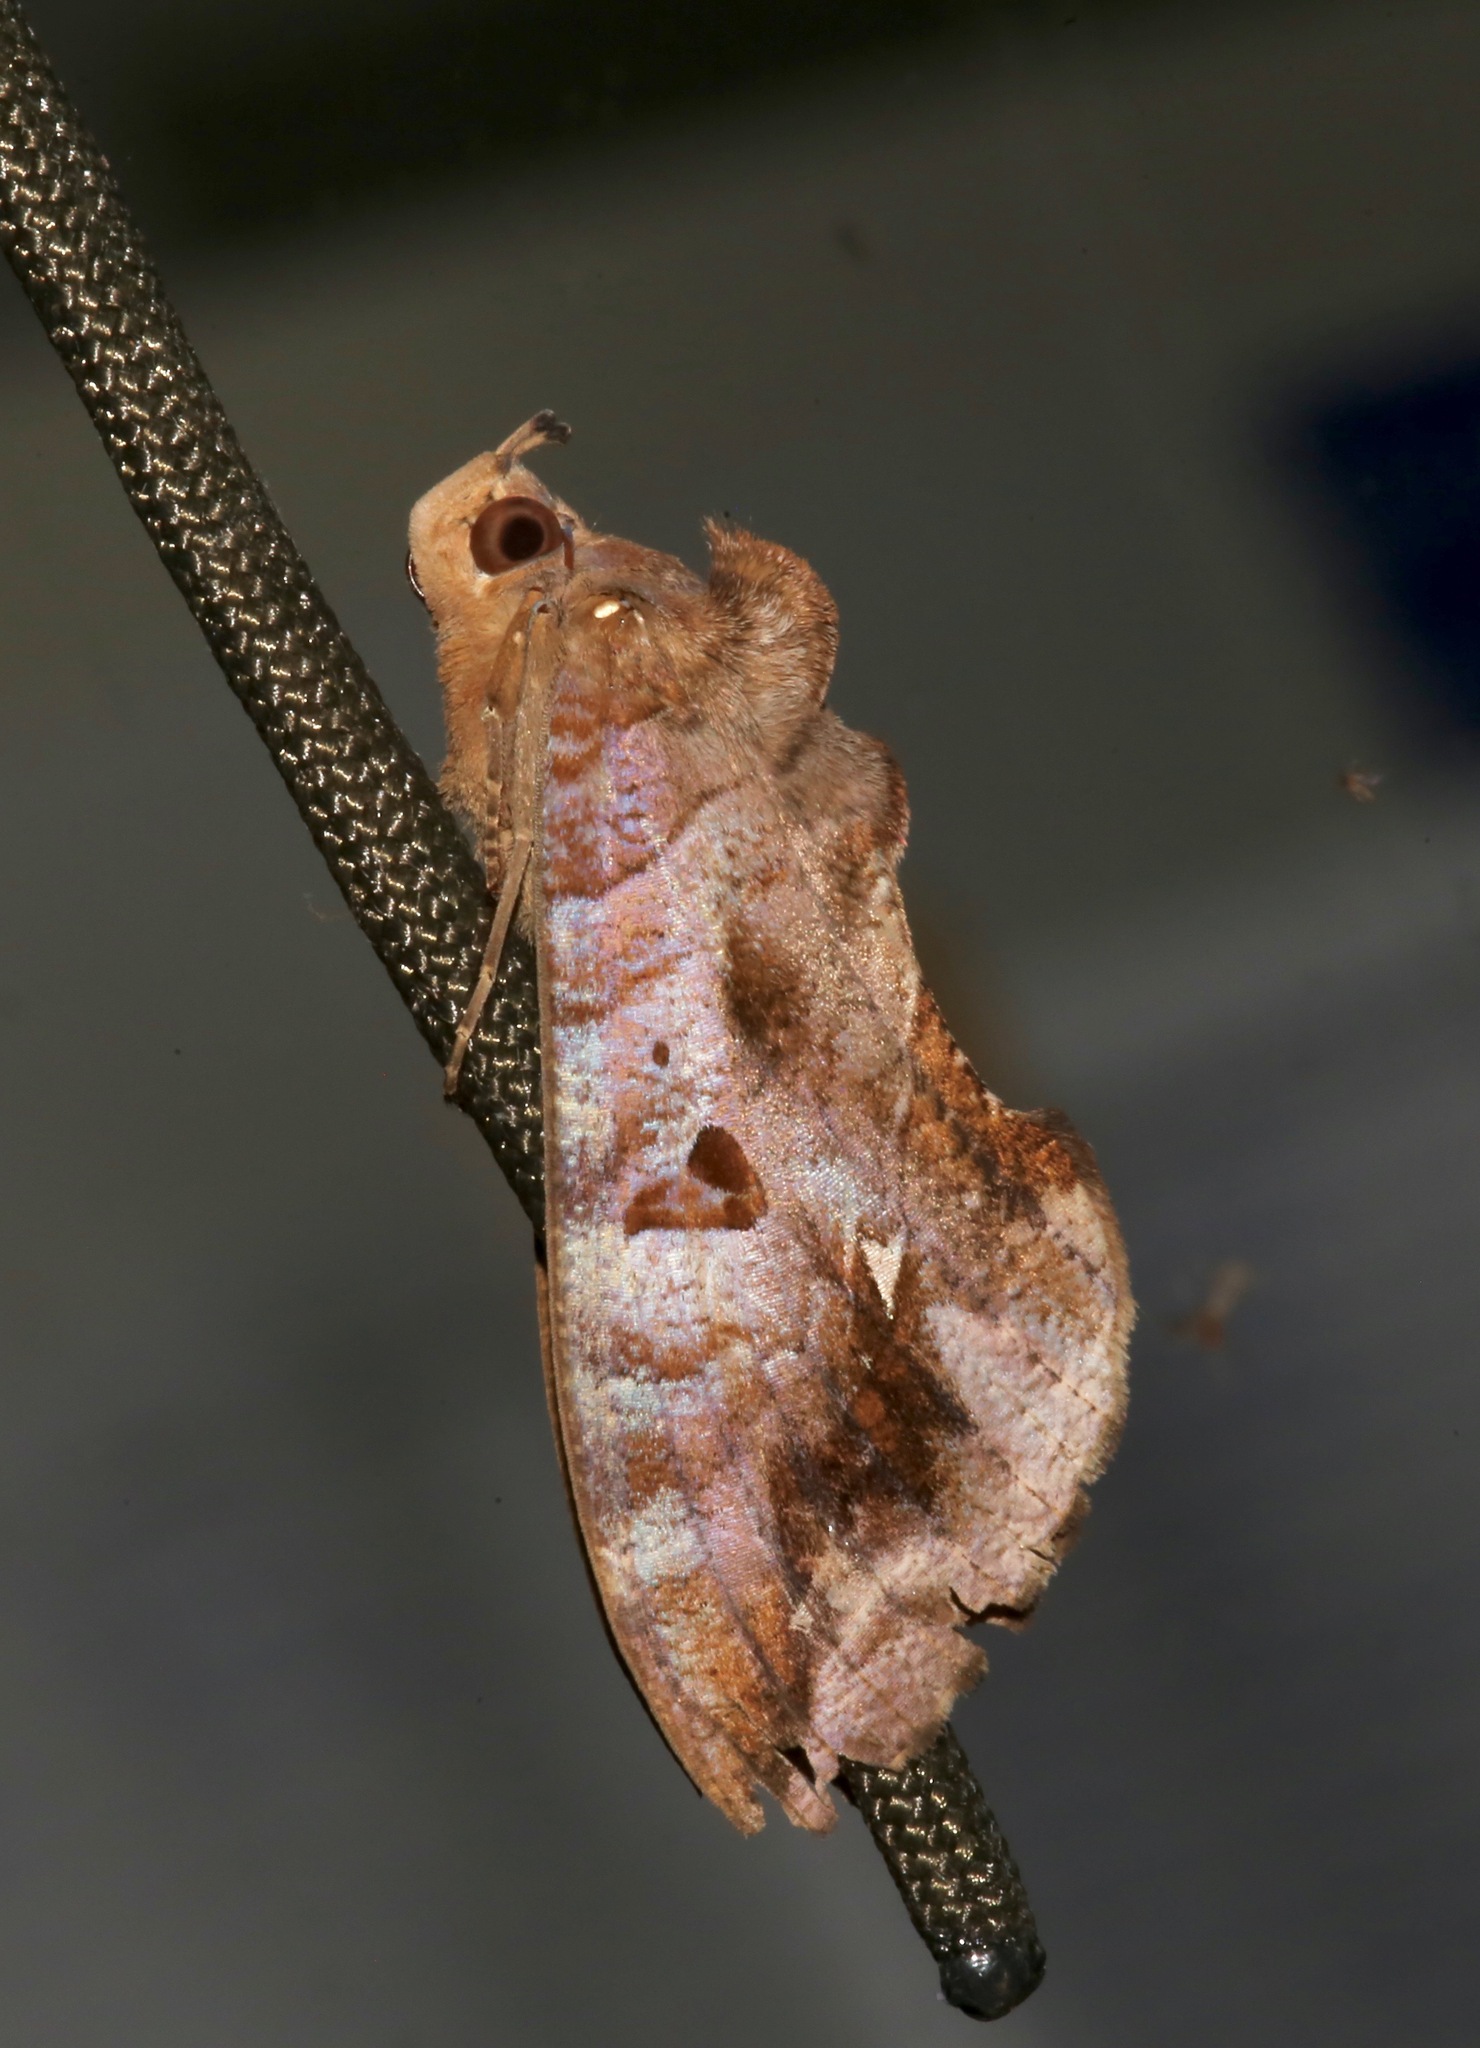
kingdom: Animalia
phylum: Arthropoda
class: Insecta
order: Lepidoptera
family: Erebidae
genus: Eudocima
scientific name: Eudocima procus
